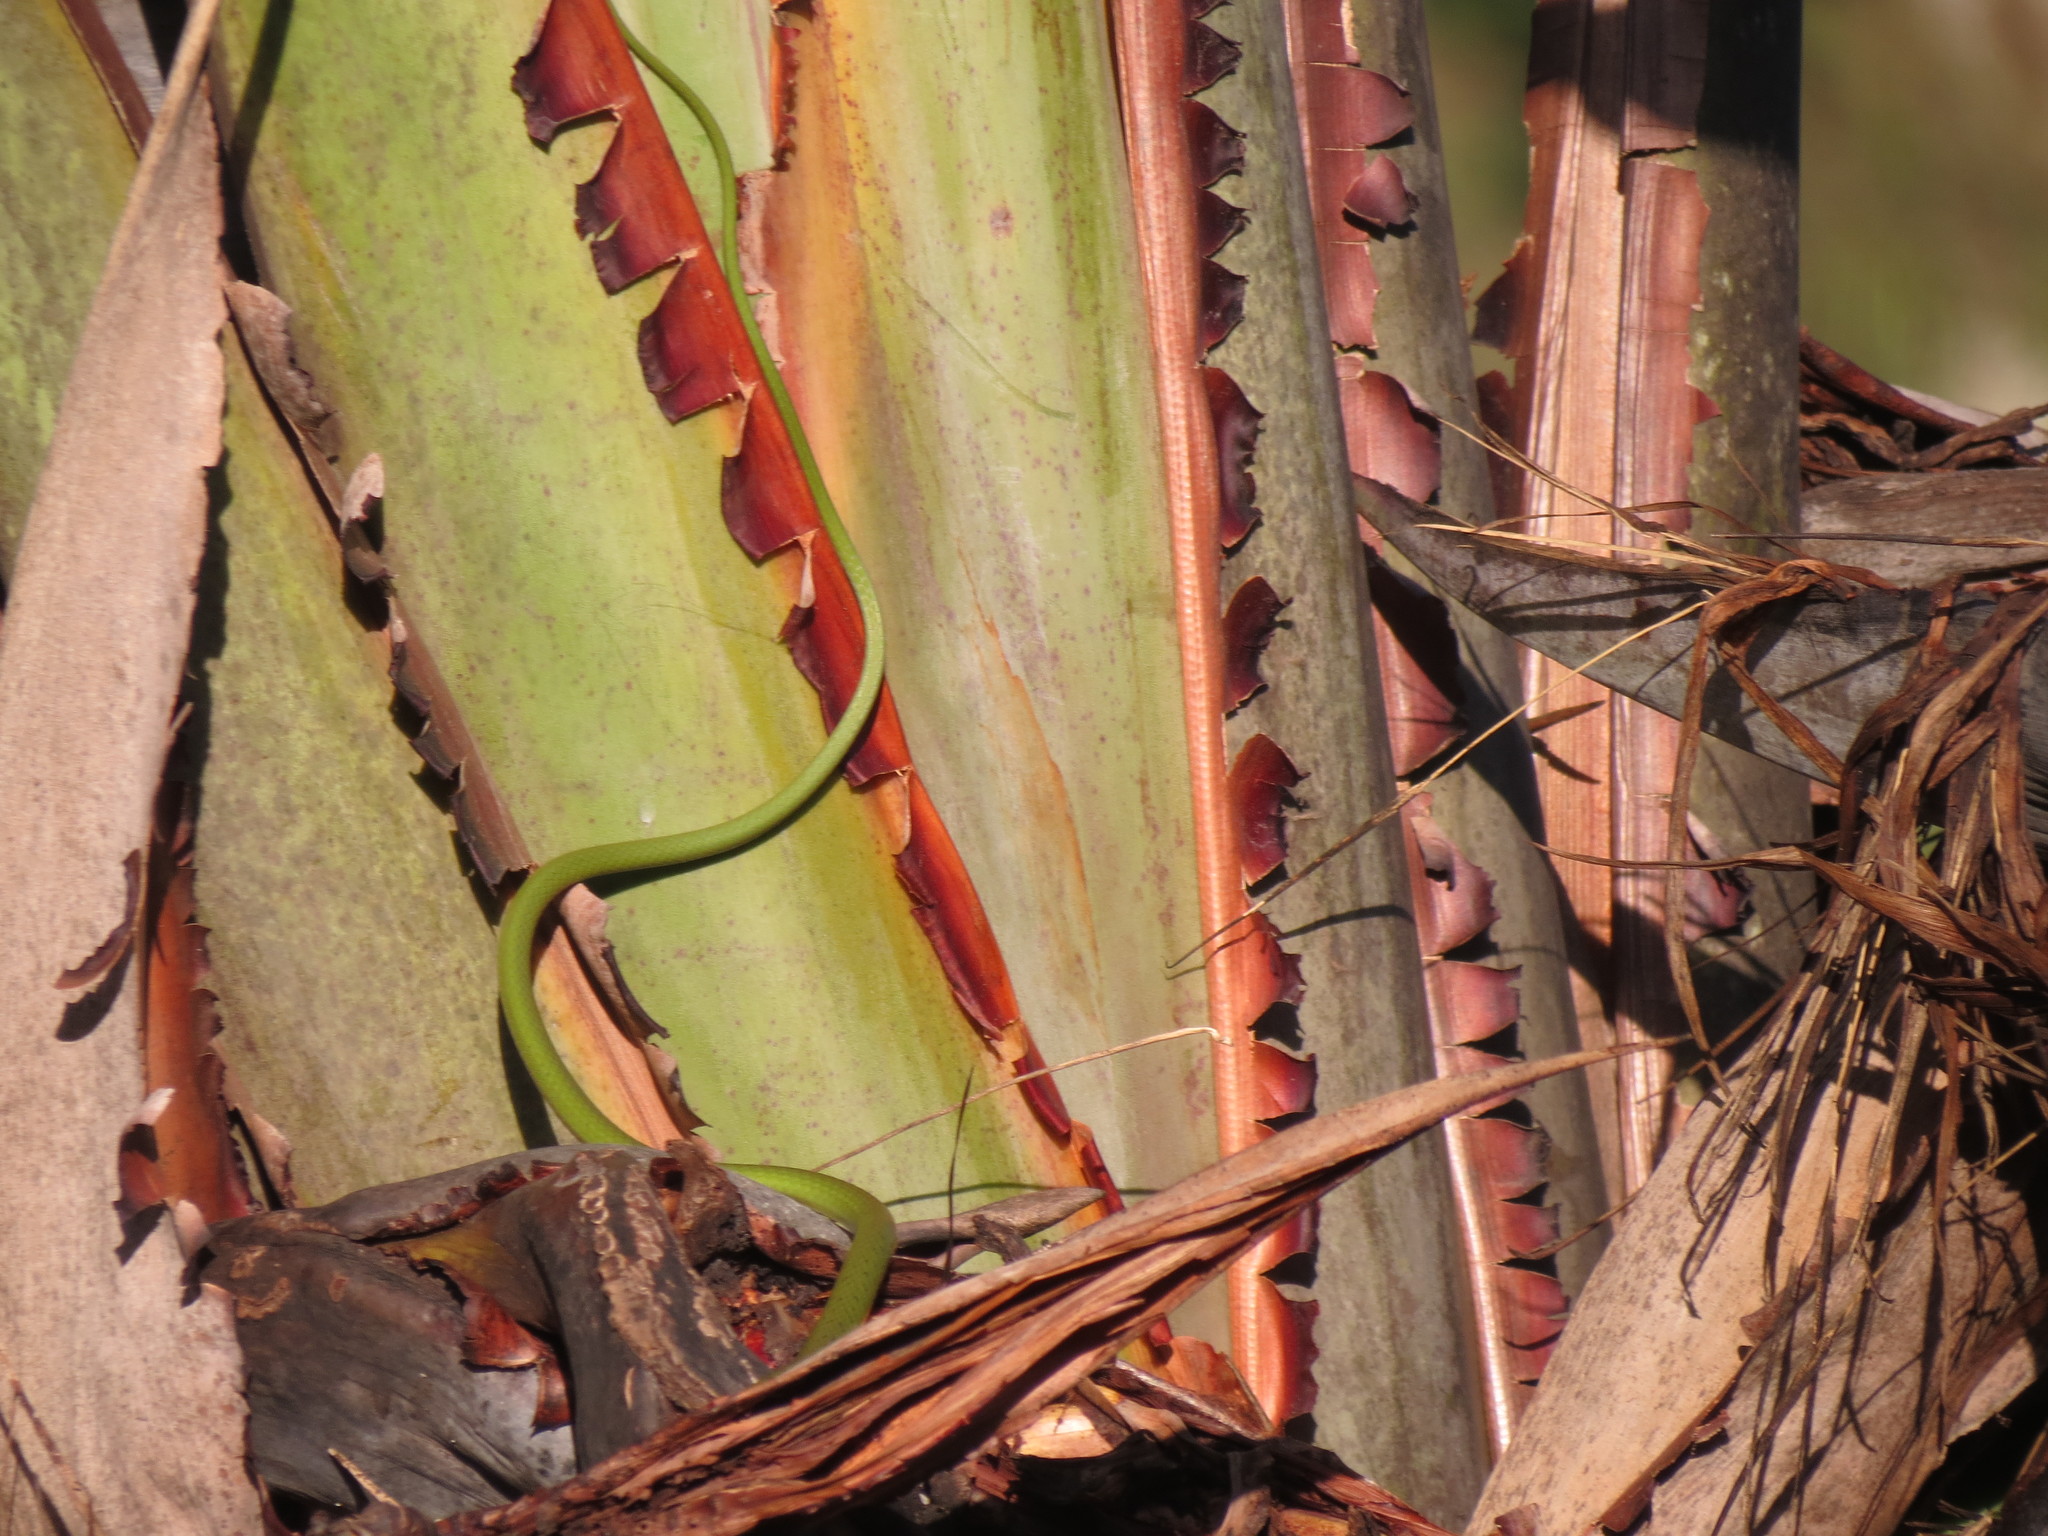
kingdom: Animalia
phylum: Chordata
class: Squamata
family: Colubridae
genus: Philothamnus
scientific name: Philothamnus semivariegatus
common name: Spotted bush snake
